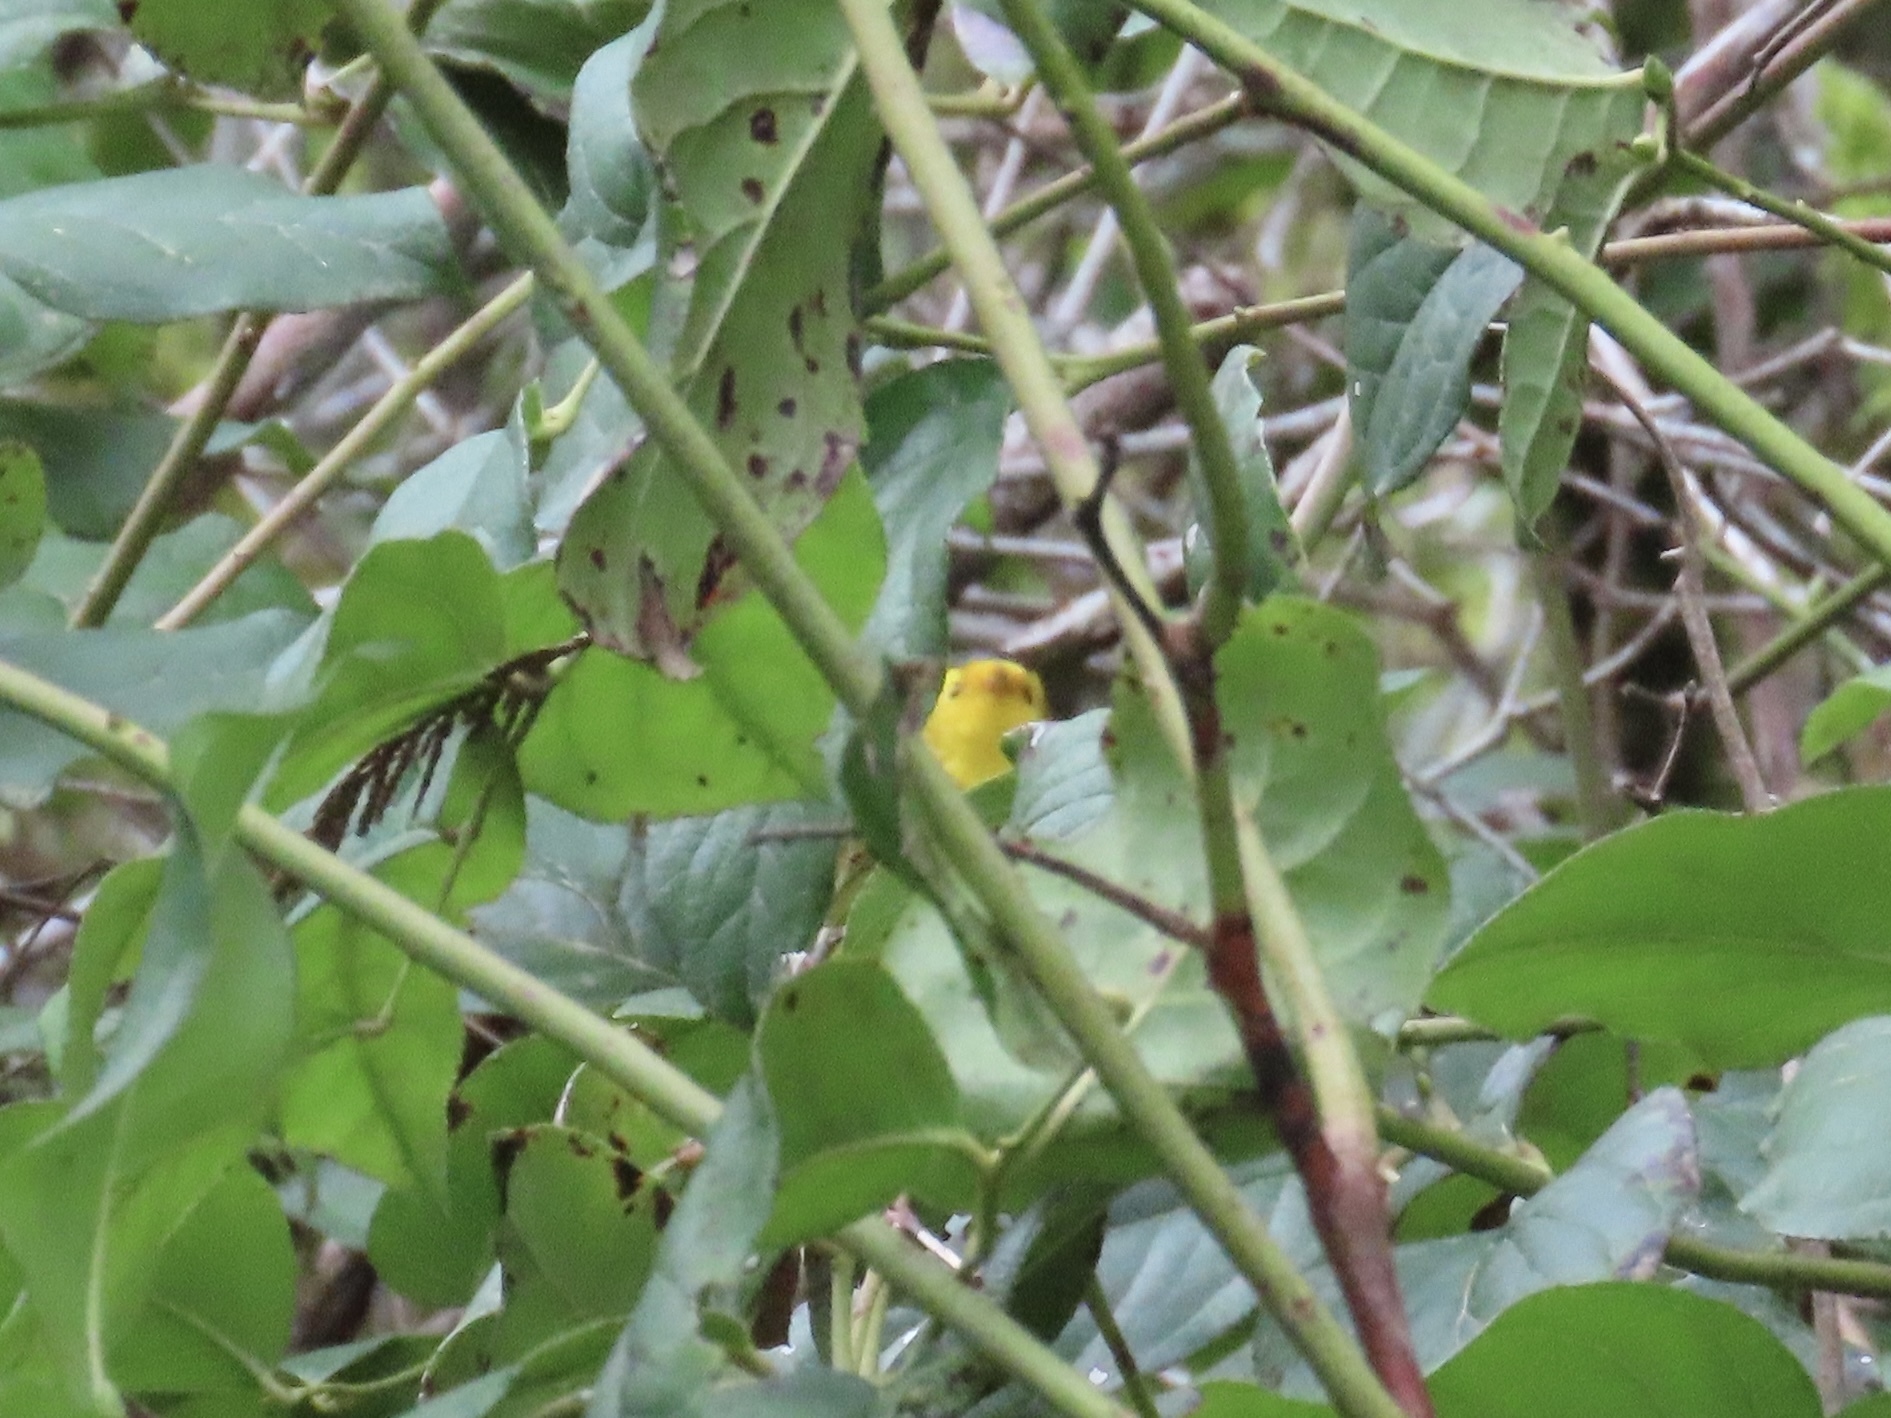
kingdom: Animalia
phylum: Chordata
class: Aves
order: Passeriformes
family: Parulidae
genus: Cardellina
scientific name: Cardellina pusilla
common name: Wilson's warbler
